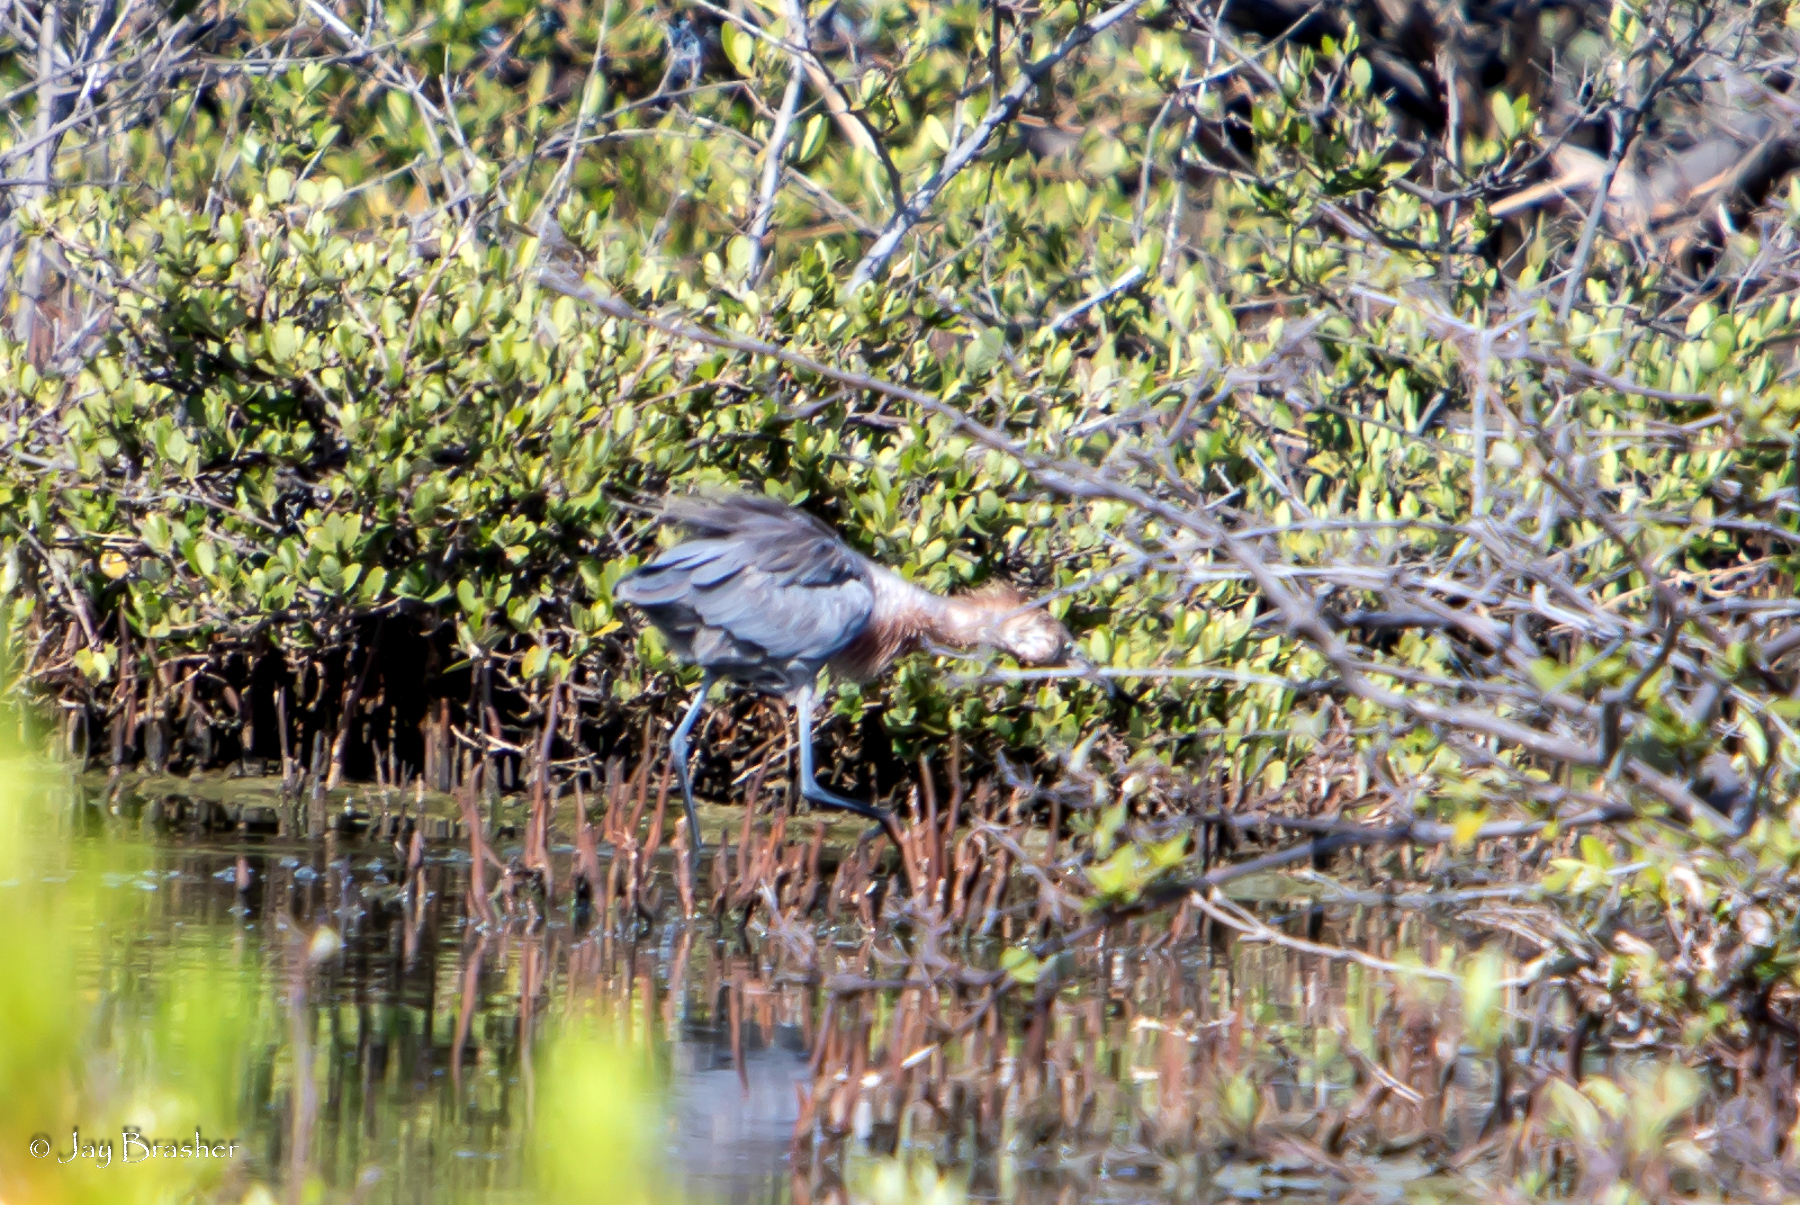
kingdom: Plantae
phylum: Tracheophyta
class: Magnoliopsida
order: Lamiales
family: Acanthaceae
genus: Avicennia
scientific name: Avicennia germinans
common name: Black mangrove
